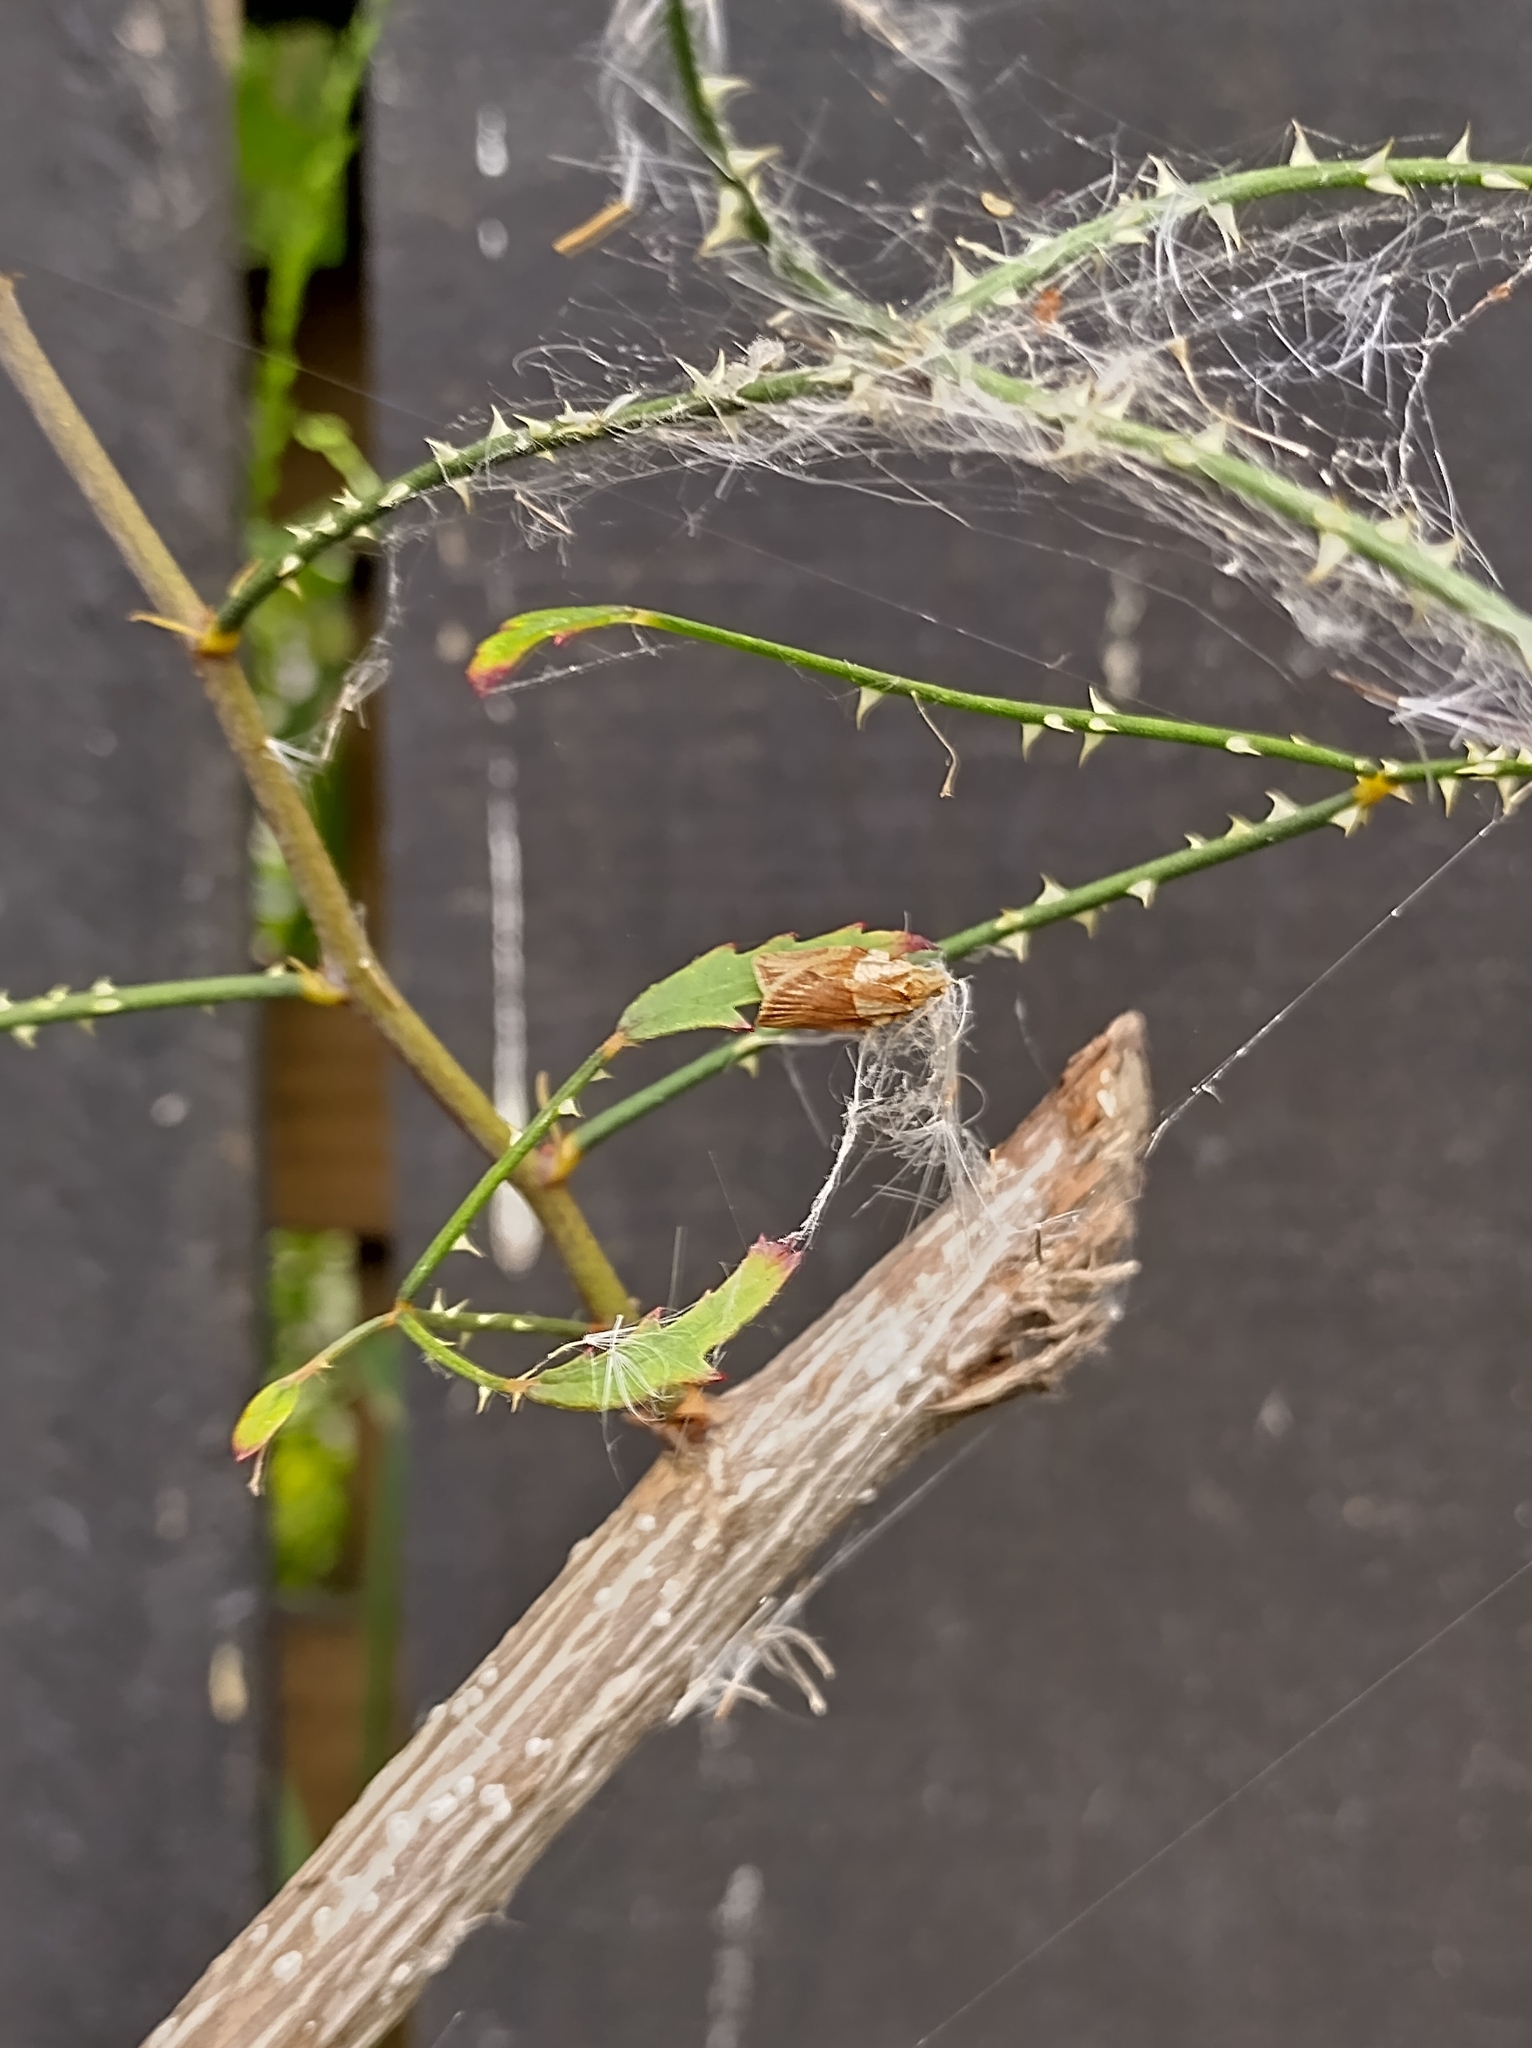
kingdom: Animalia
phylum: Arthropoda
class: Insecta
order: Lepidoptera
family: Tortricidae
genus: Epiphyas
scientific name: Epiphyas postvittana
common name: Light brown apple moth
